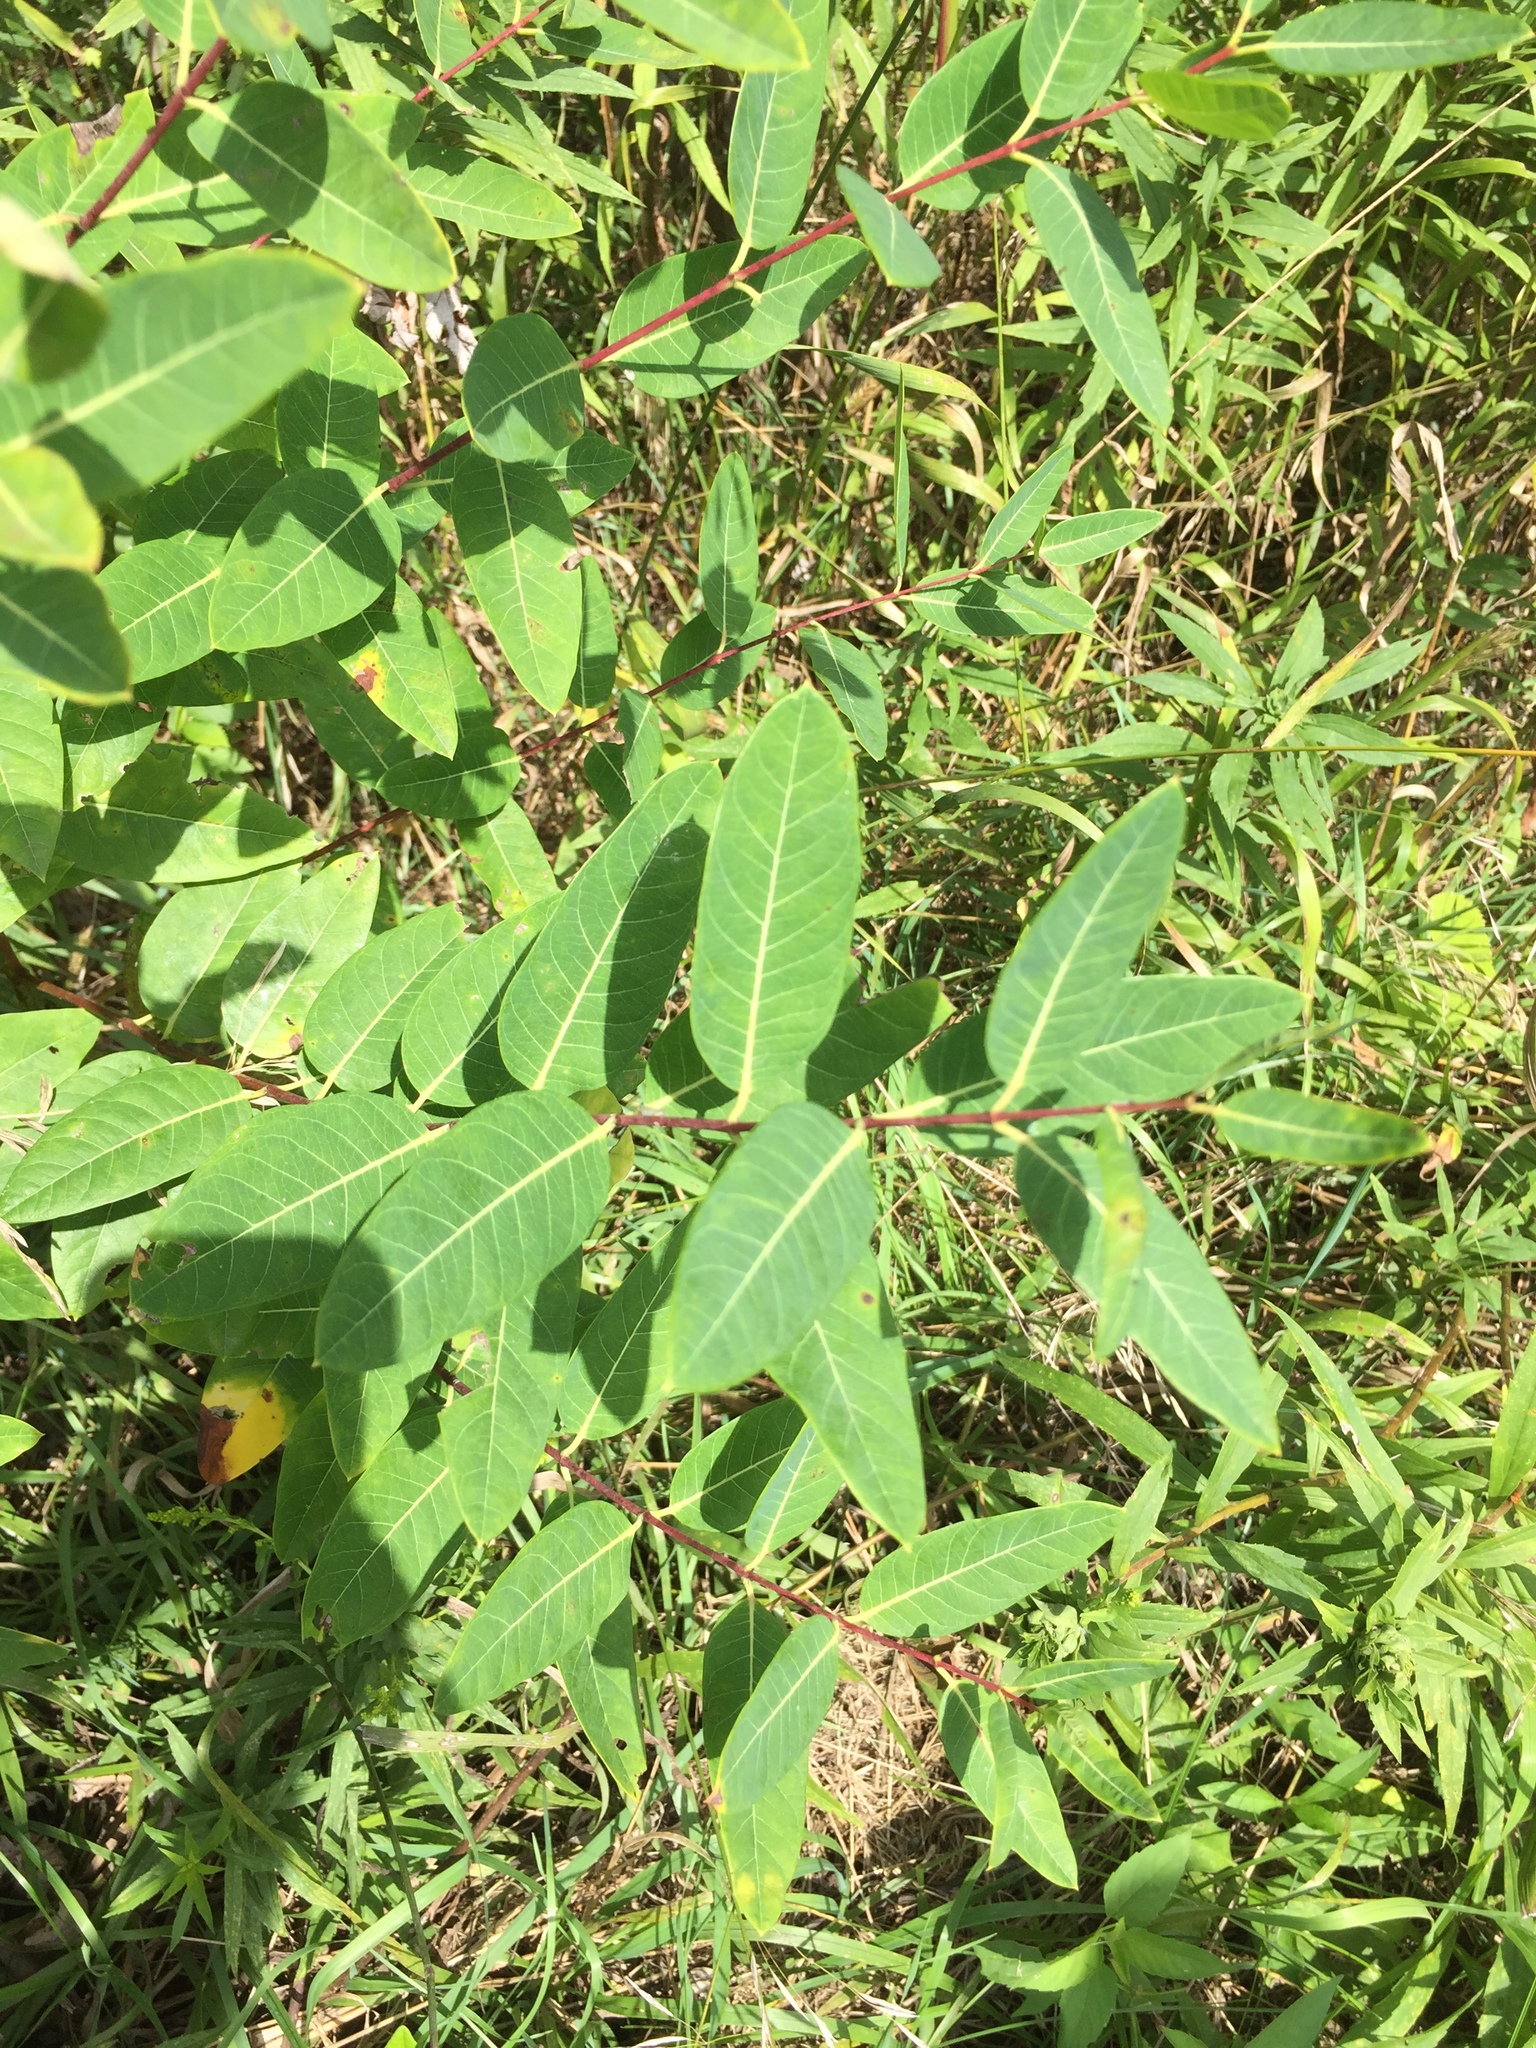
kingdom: Plantae
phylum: Tracheophyta
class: Magnoliopsida
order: Gentianales
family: Apocynaceae
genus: Apocynum
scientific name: Apocynum cannabinum
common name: Hemp dogbane
